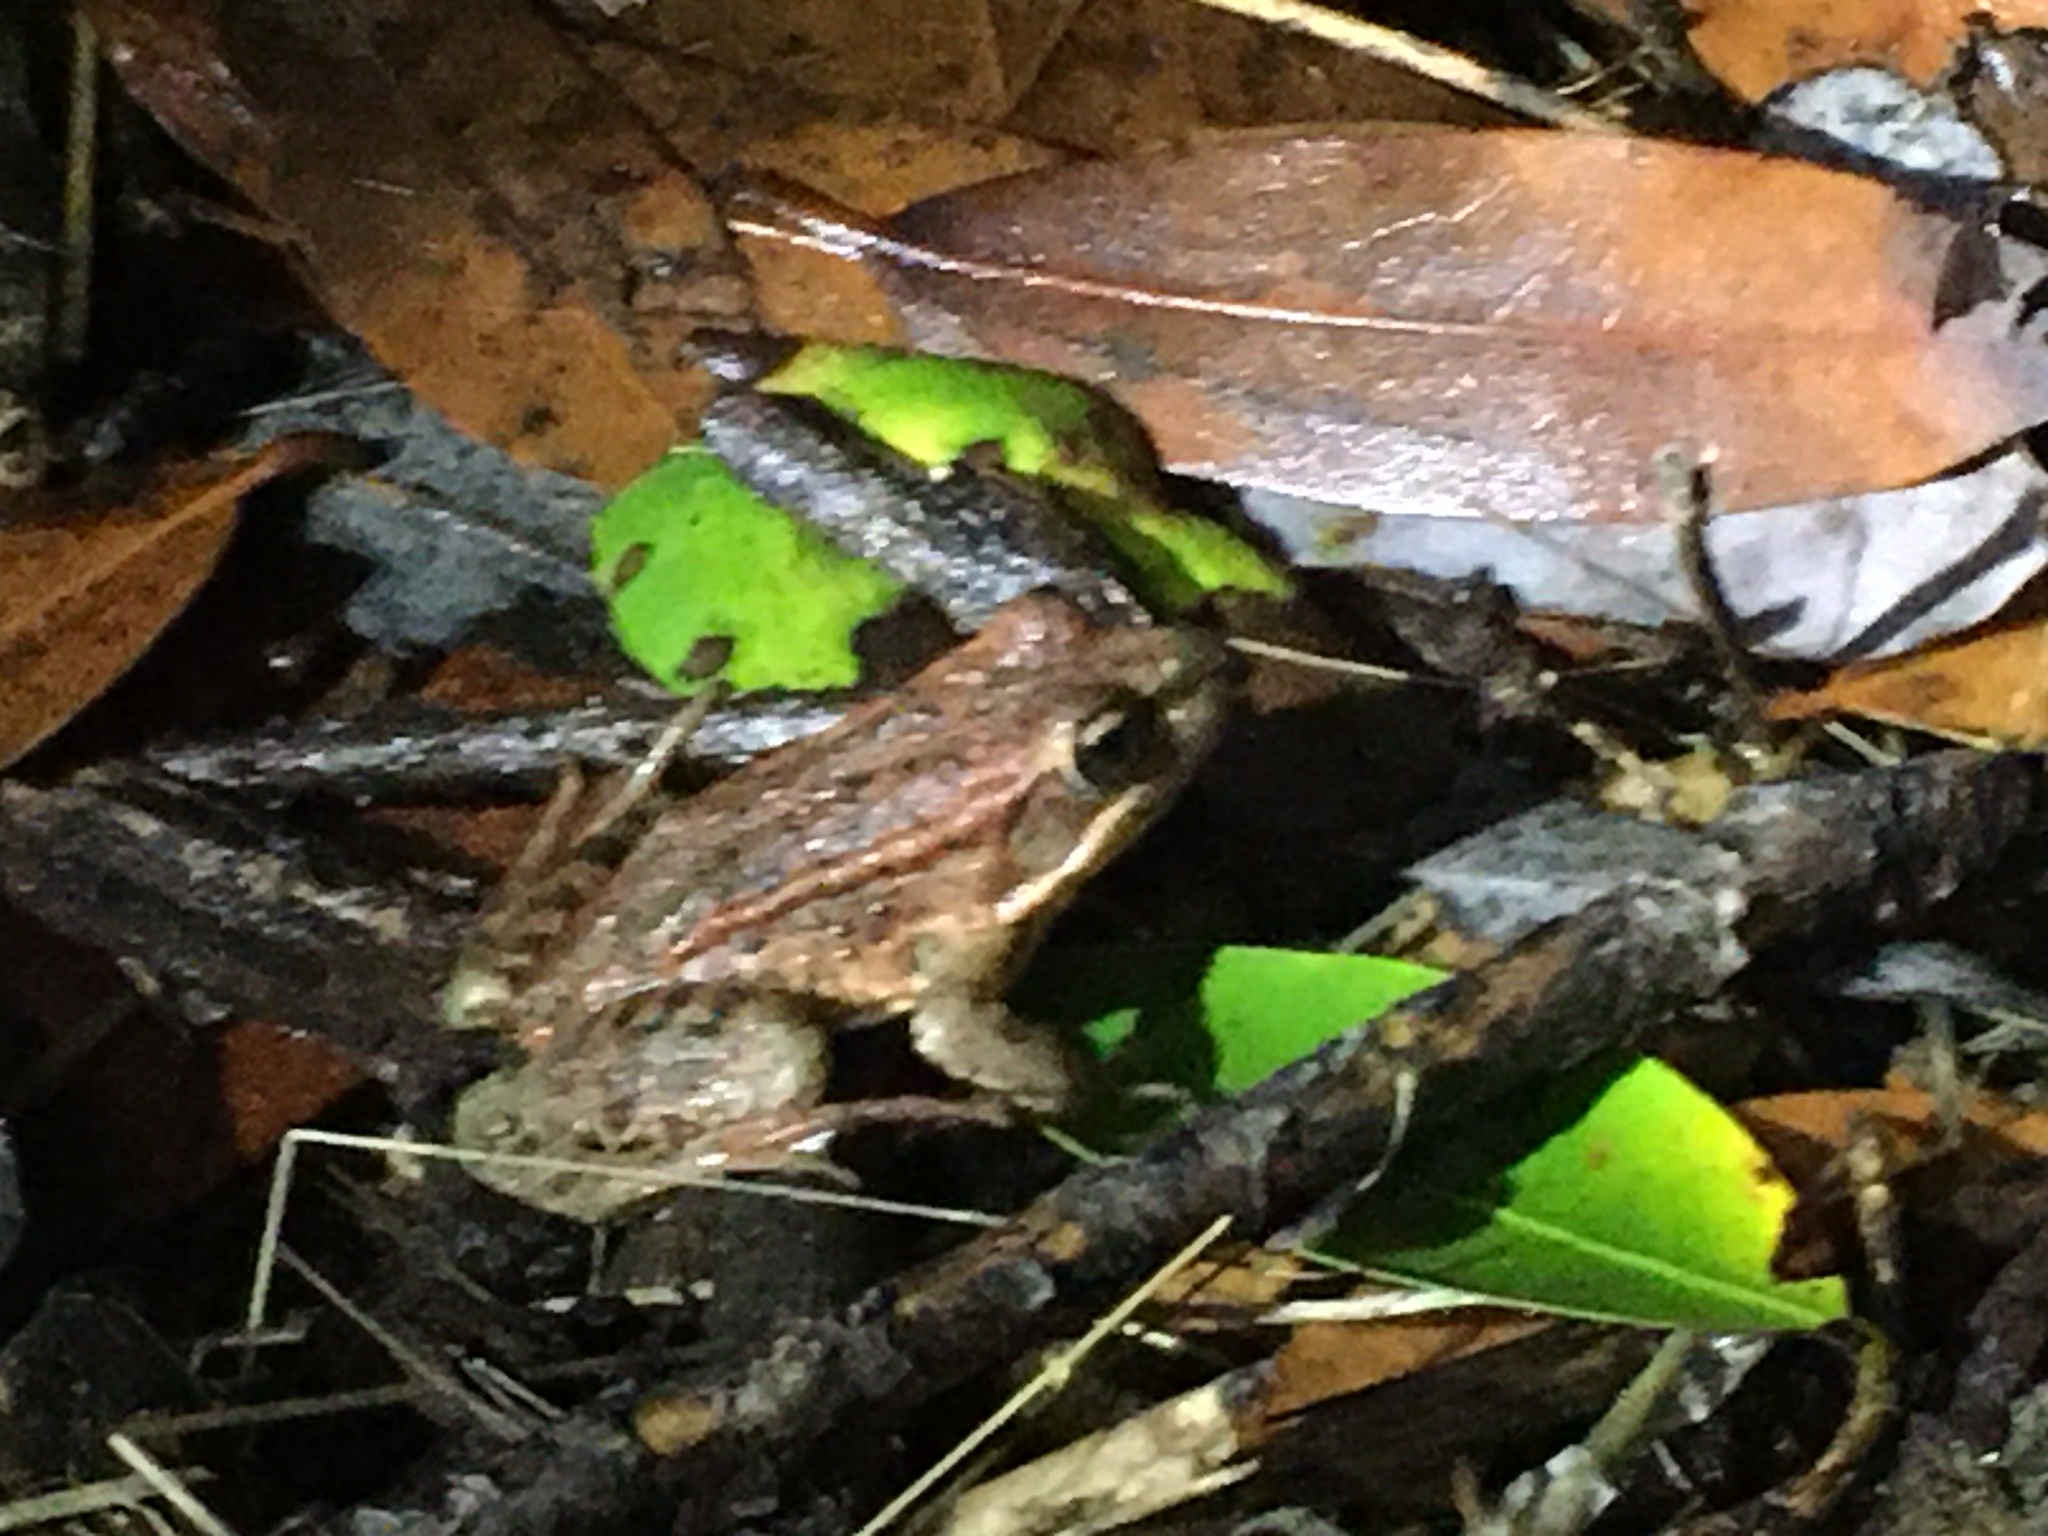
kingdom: Animalia
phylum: Chordata
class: Amphibia
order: Anura
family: Ranidae
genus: Rana
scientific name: Rana draytonii
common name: California red-legged frog
